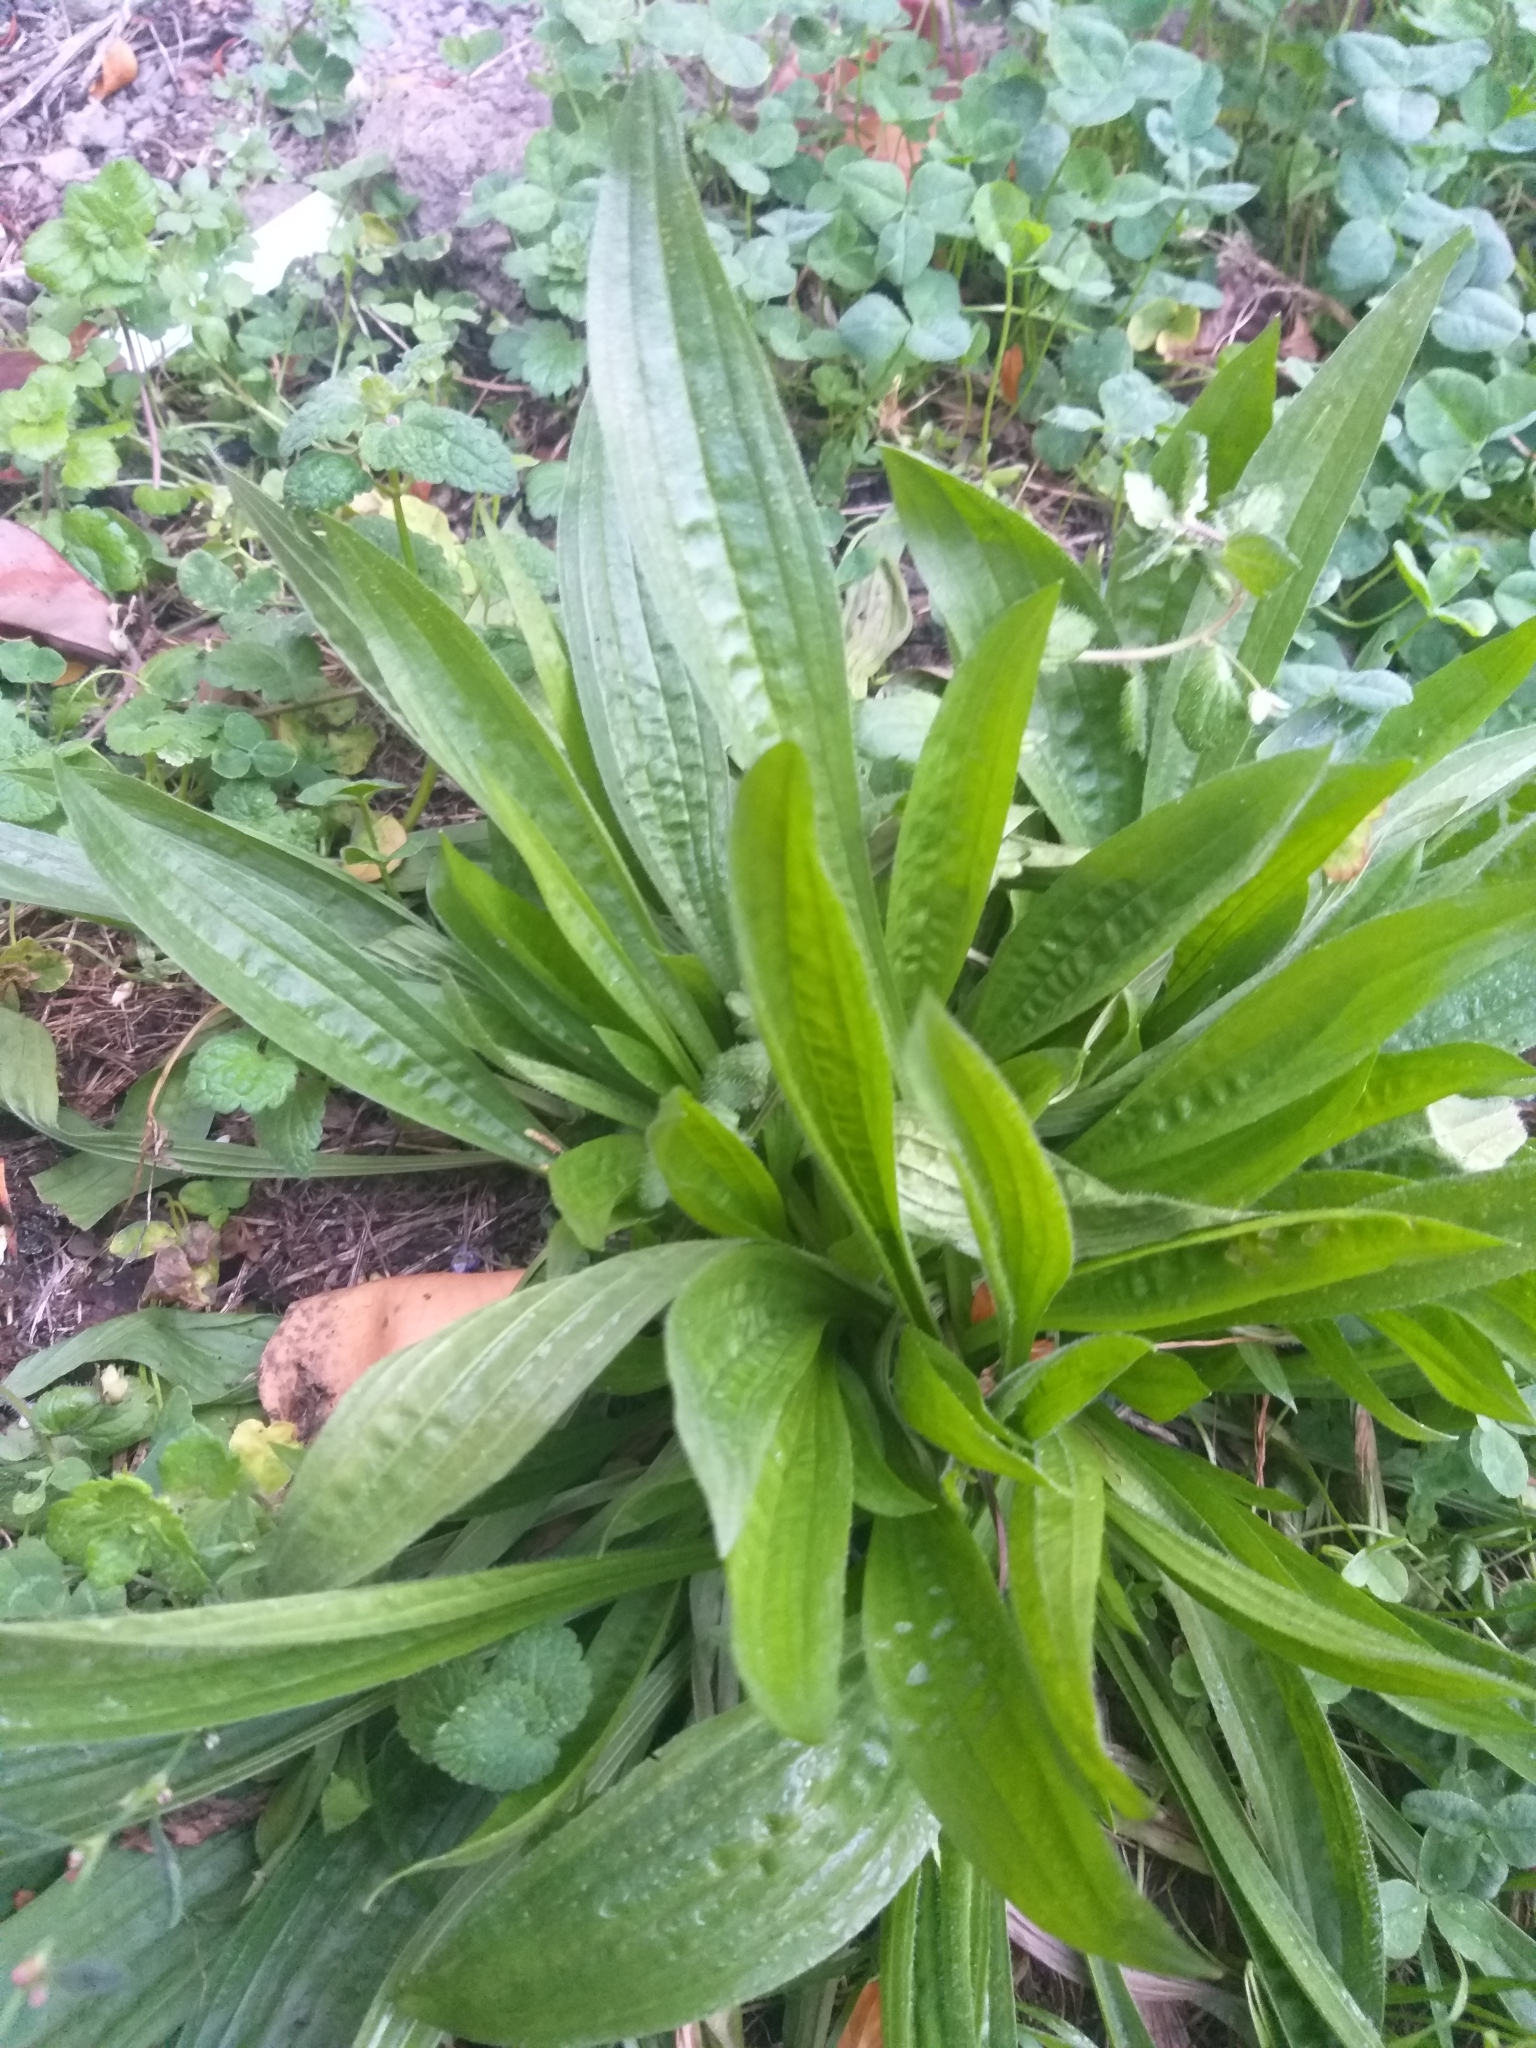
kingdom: Plantae
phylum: Tracheophyta
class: Magnoliopsida
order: Lamiales
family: Plantaginaceae
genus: Plantago
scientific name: Plantago lanceolata
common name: Ribwort plantain
